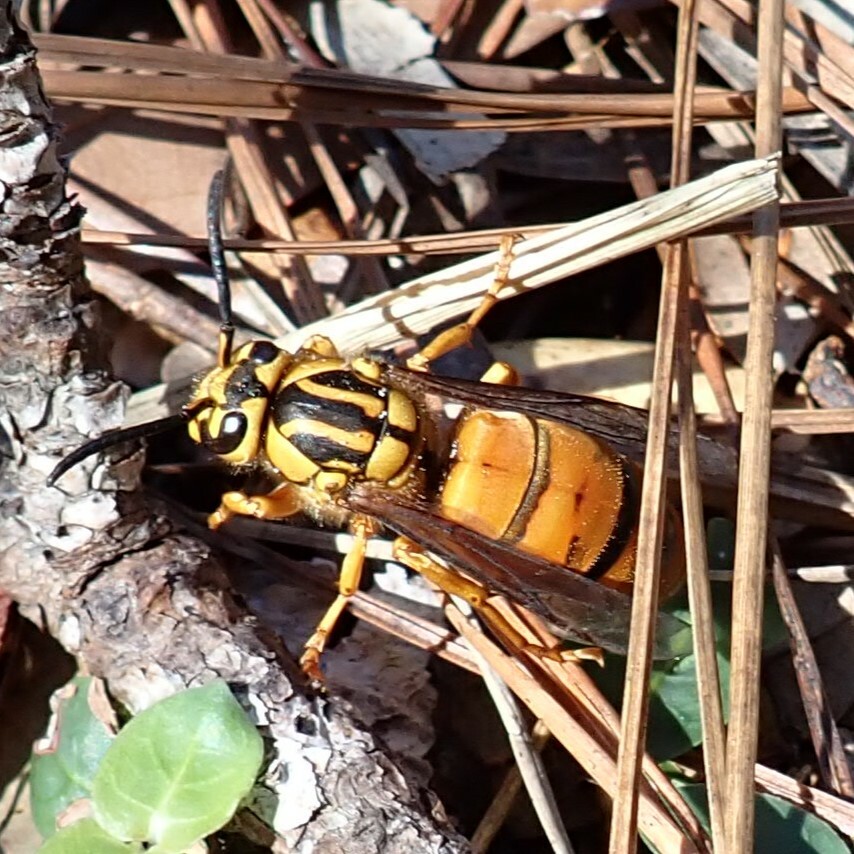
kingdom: Animalia
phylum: Arthropoda
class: Insecta
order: Hymenoptera
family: Vespidae
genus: Vespula
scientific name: Vespula squamosa
